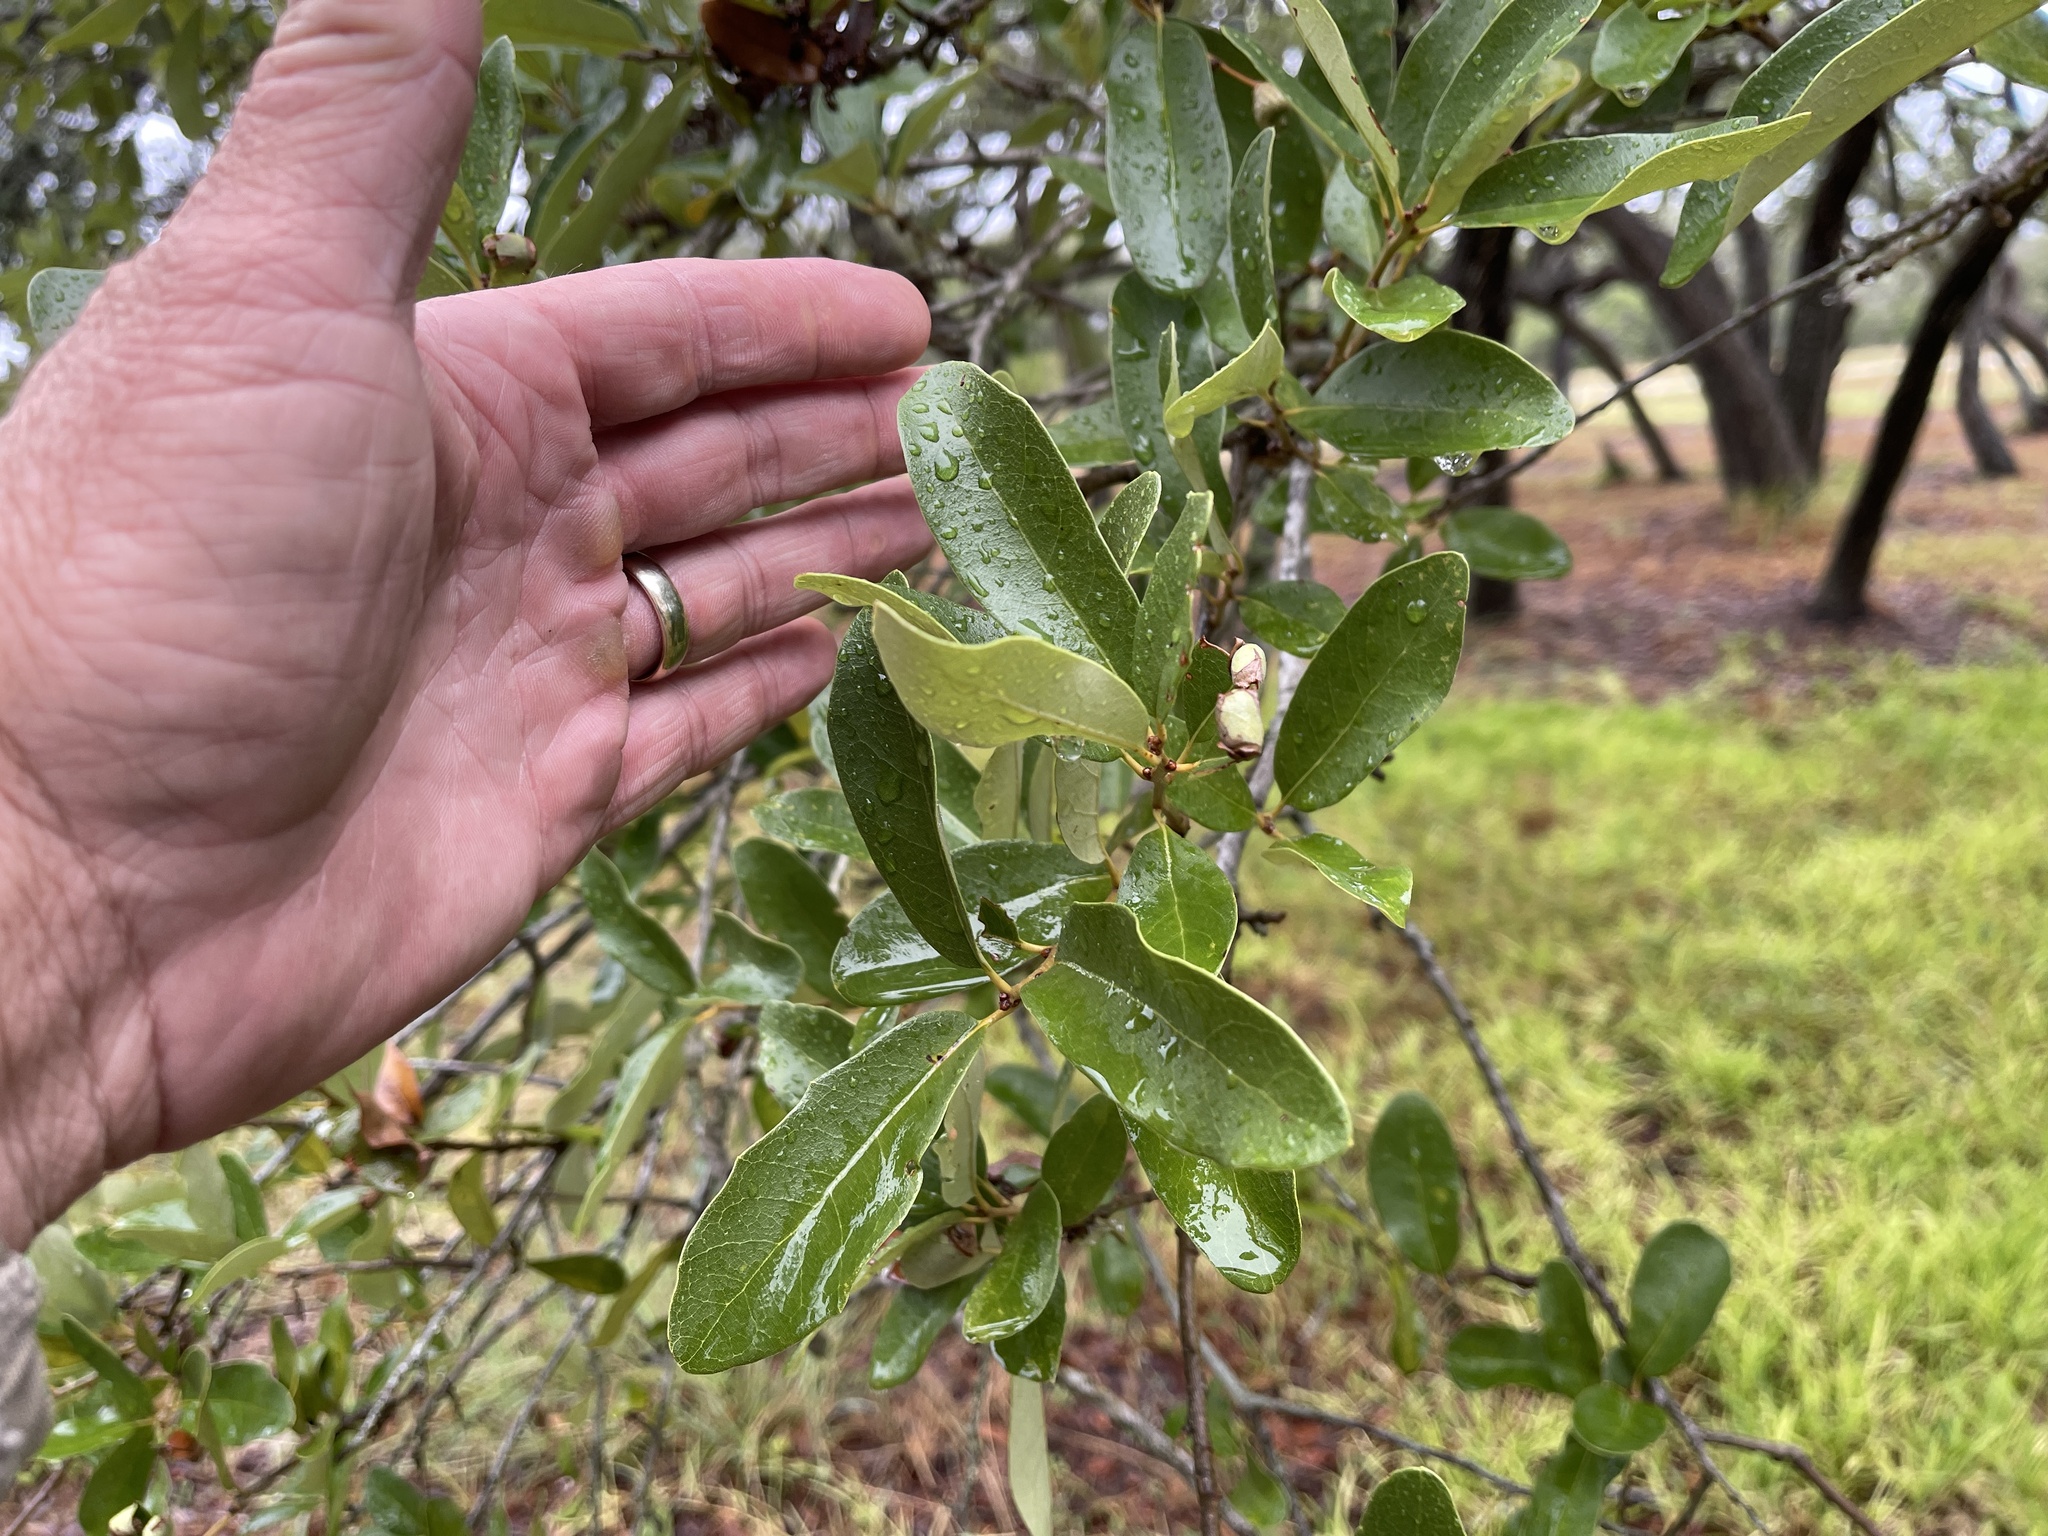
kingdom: Plantae
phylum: Tracheophyta
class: Magnoliopsida
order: Fagales
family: Fagaceae
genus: Quercus
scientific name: Quercus fusiformis
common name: Texas live oak
